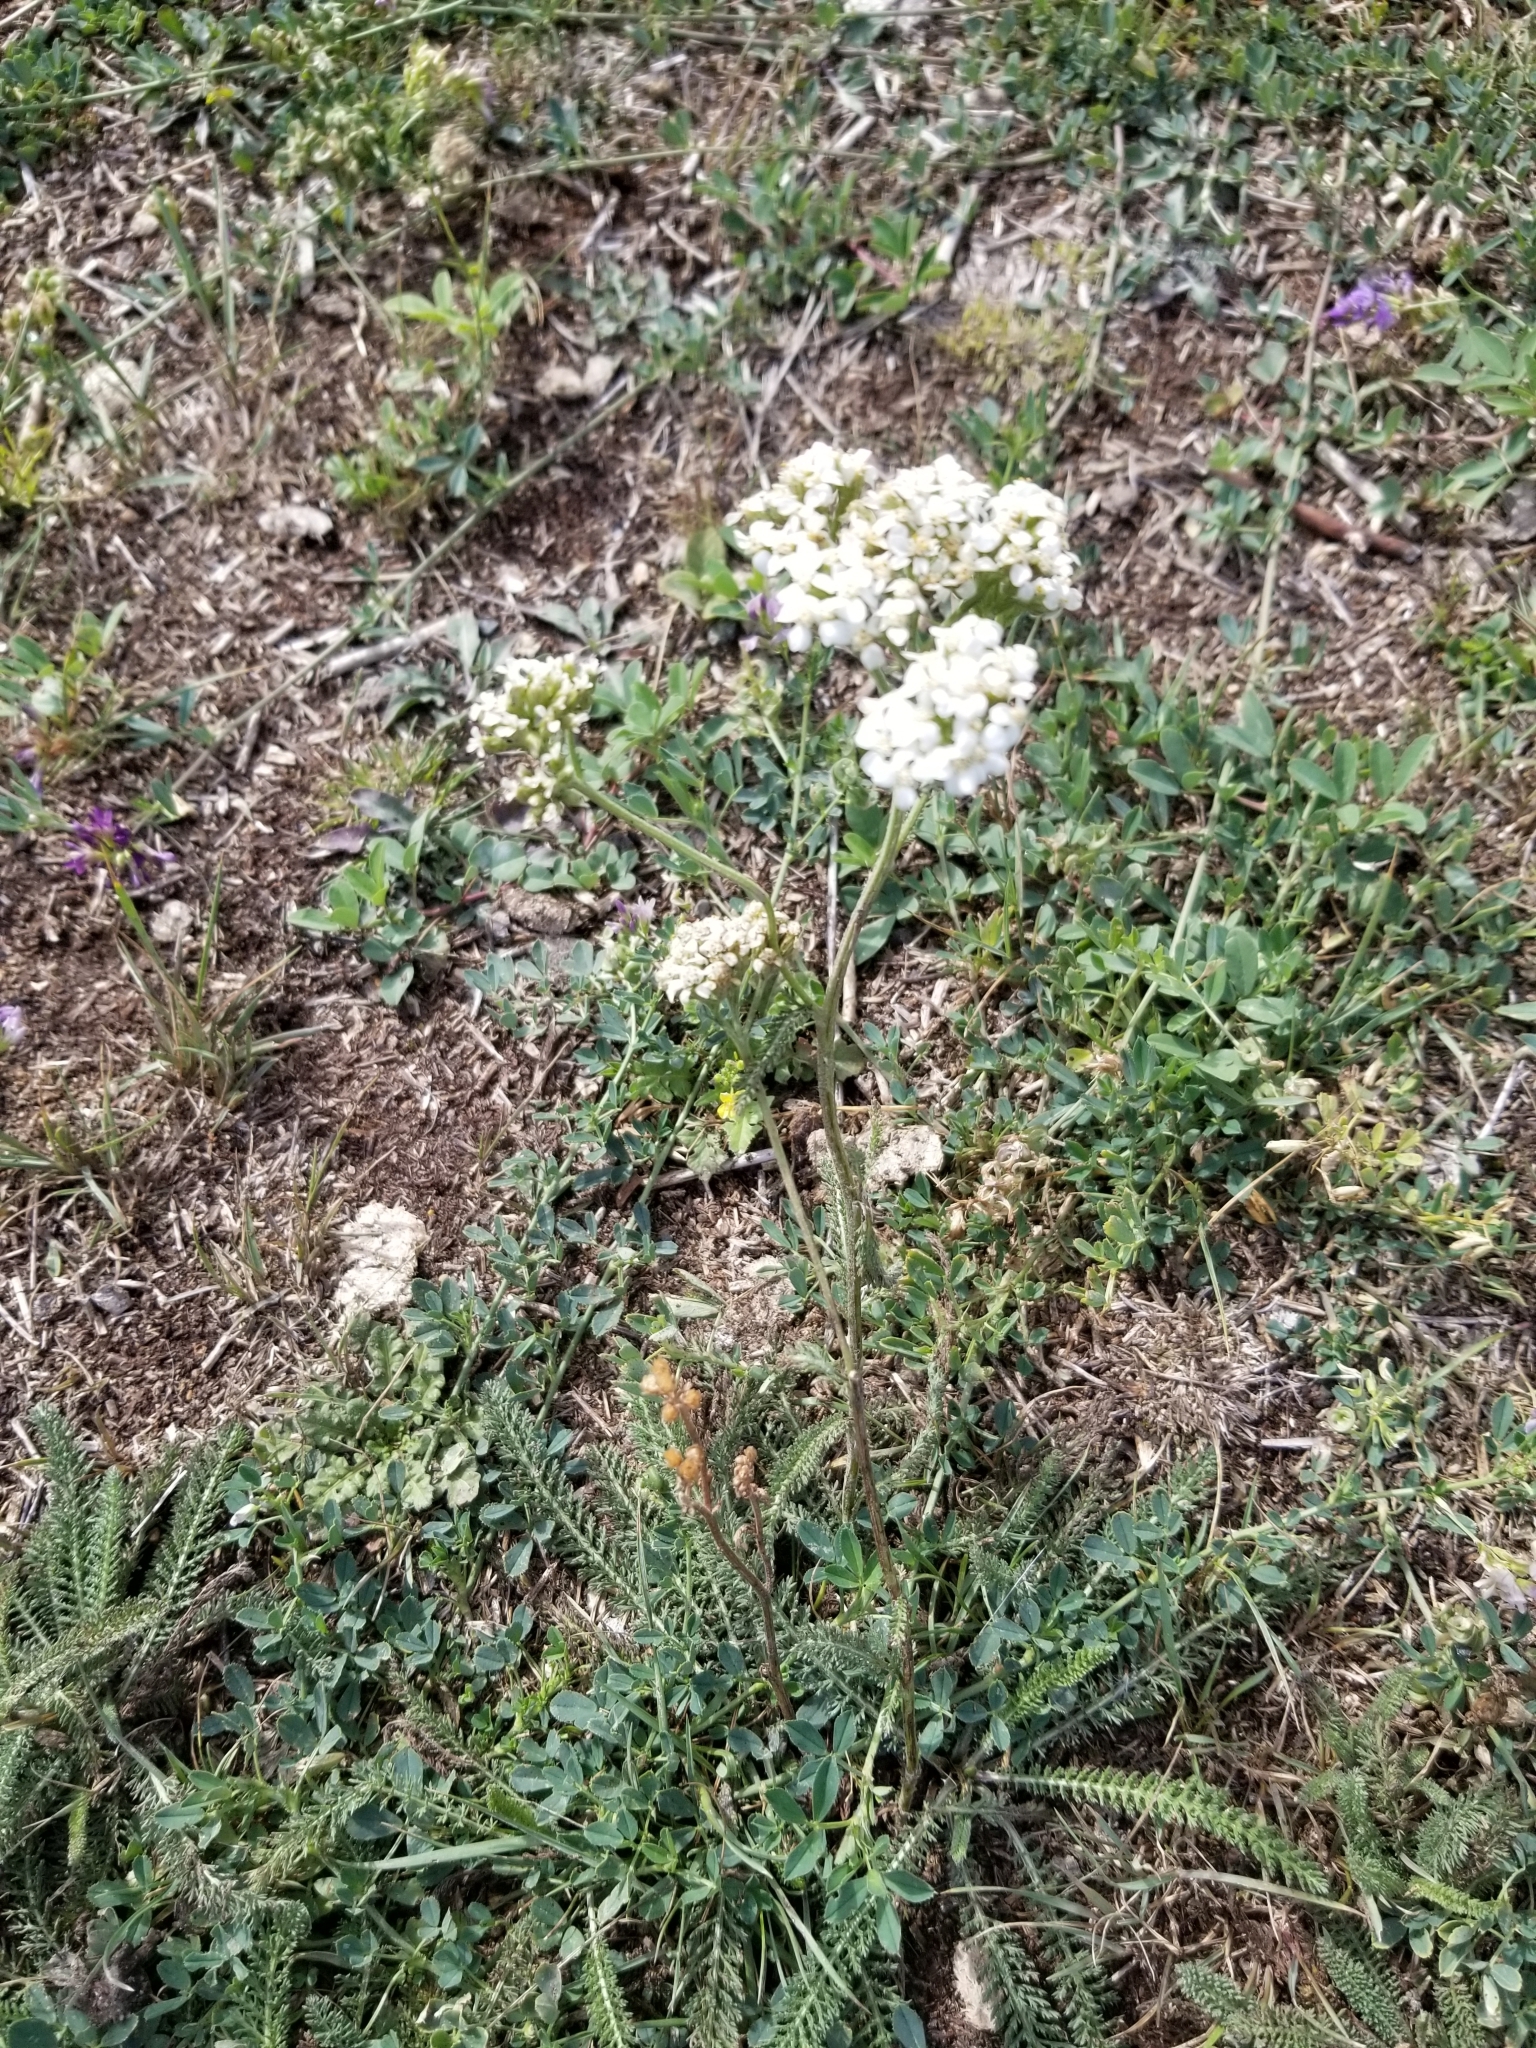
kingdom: Plantae
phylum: Tracheophyta
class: Magnoliopsida
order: Asterales
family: Asteraceae
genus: Achillea
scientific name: Achillea millefolium
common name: Yarrow
